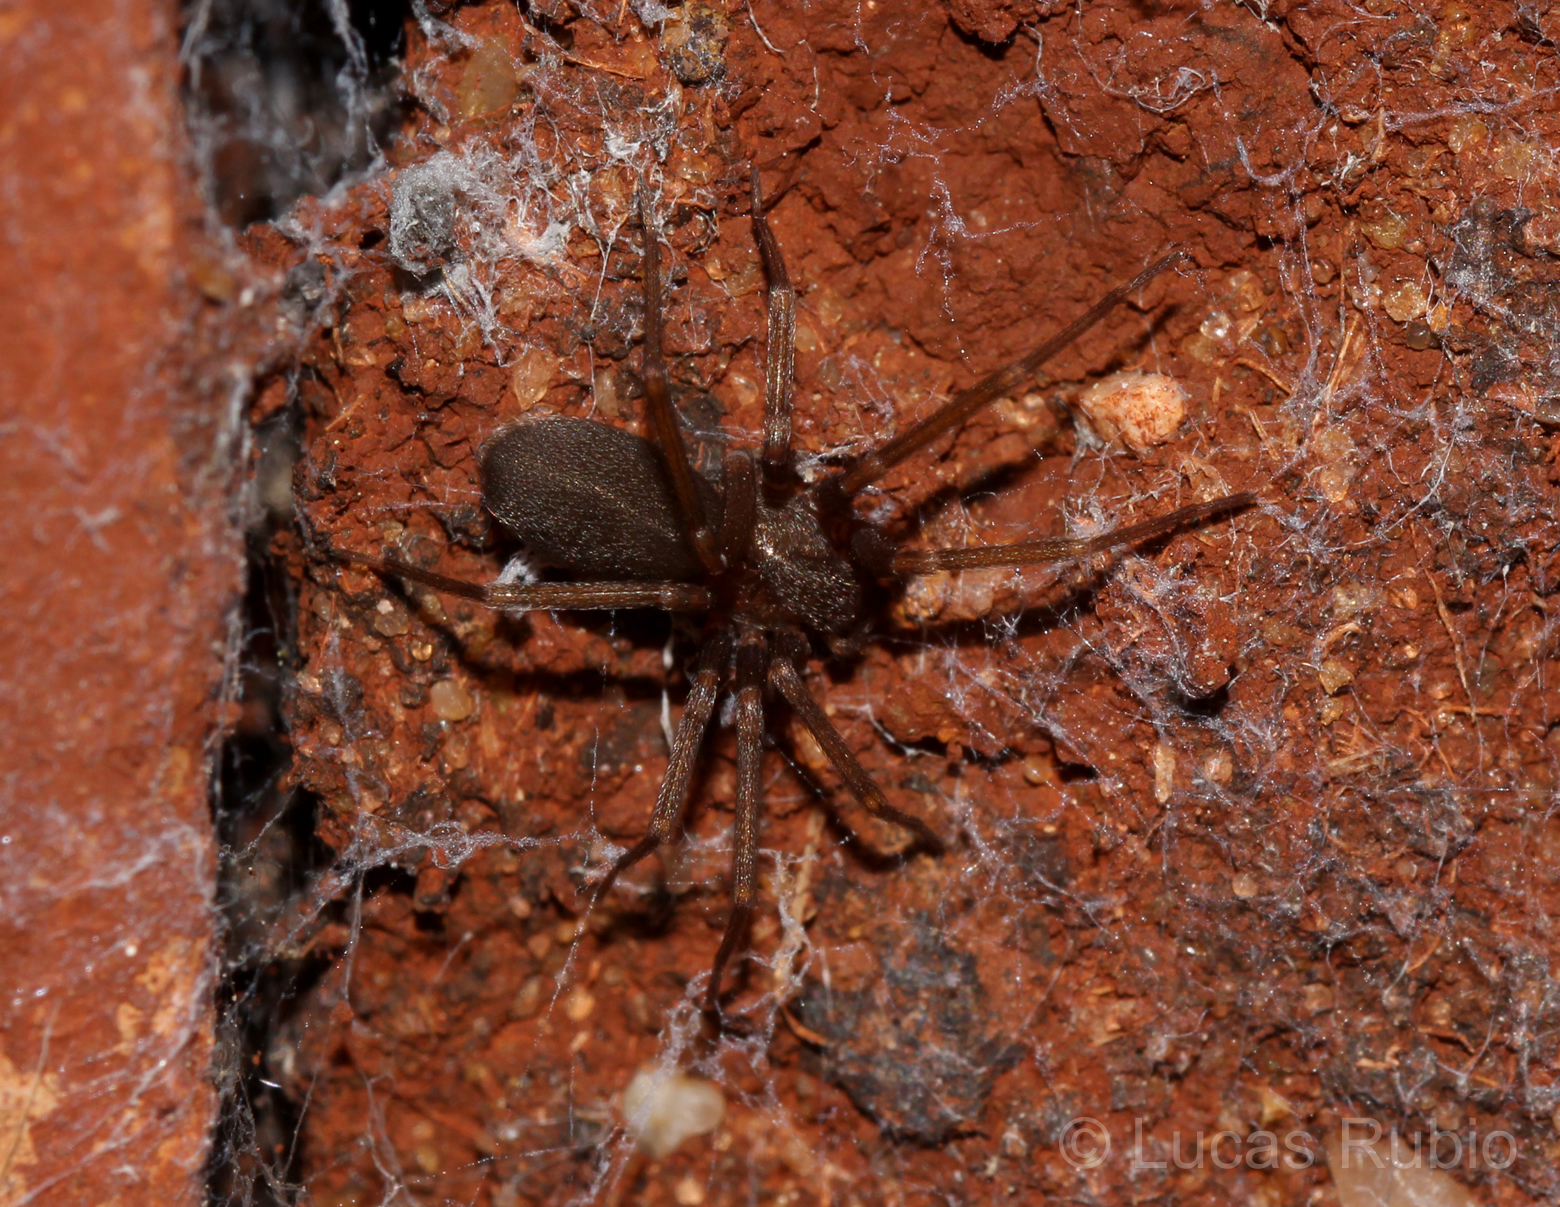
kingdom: Animalia
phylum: Arthropoda
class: Arachnida
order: Araneae
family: Sicariidae
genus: Loxosceles
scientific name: Loxosceles
